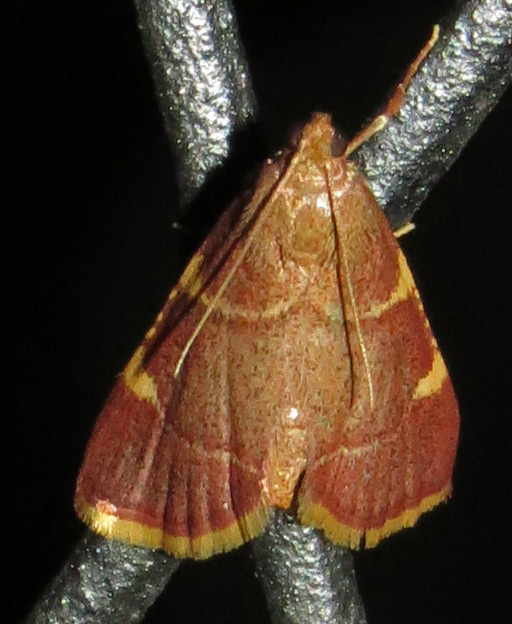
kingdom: Animalia
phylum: Arthropoda
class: Insecta
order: Lepidoptera
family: Pyralidae
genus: Hypsopygia
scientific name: Hypsopygia olinalis
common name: Yellow-fringed dolichomia moth
